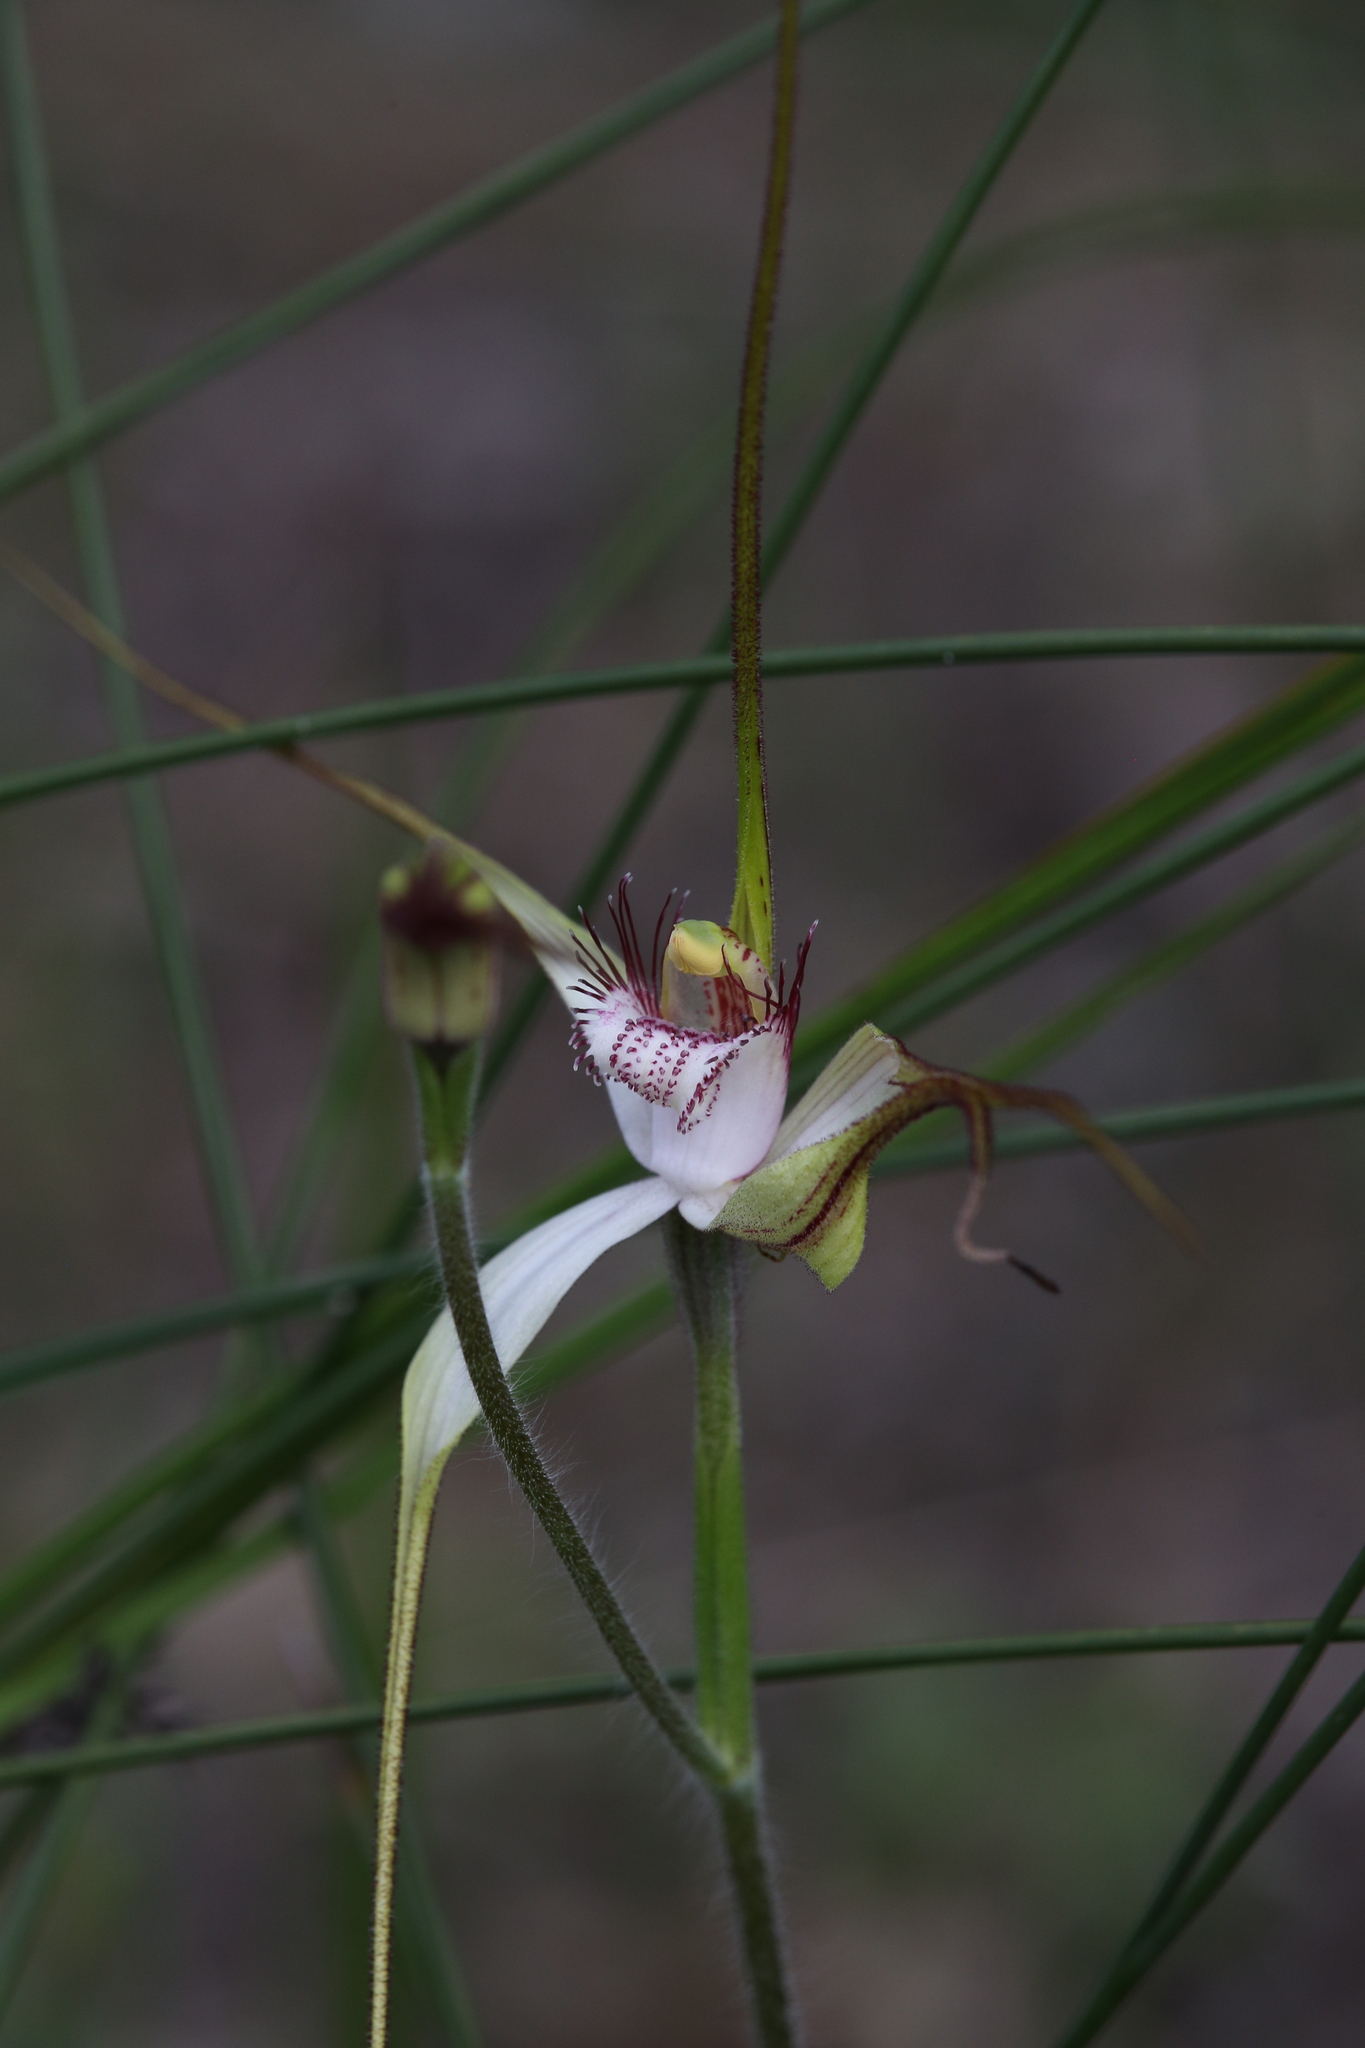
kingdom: Plantae
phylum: Tracheophyta
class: Liliopsida
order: Asparagales
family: Orchidaceae
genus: Caladenia
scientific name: Caladenia longicauda
